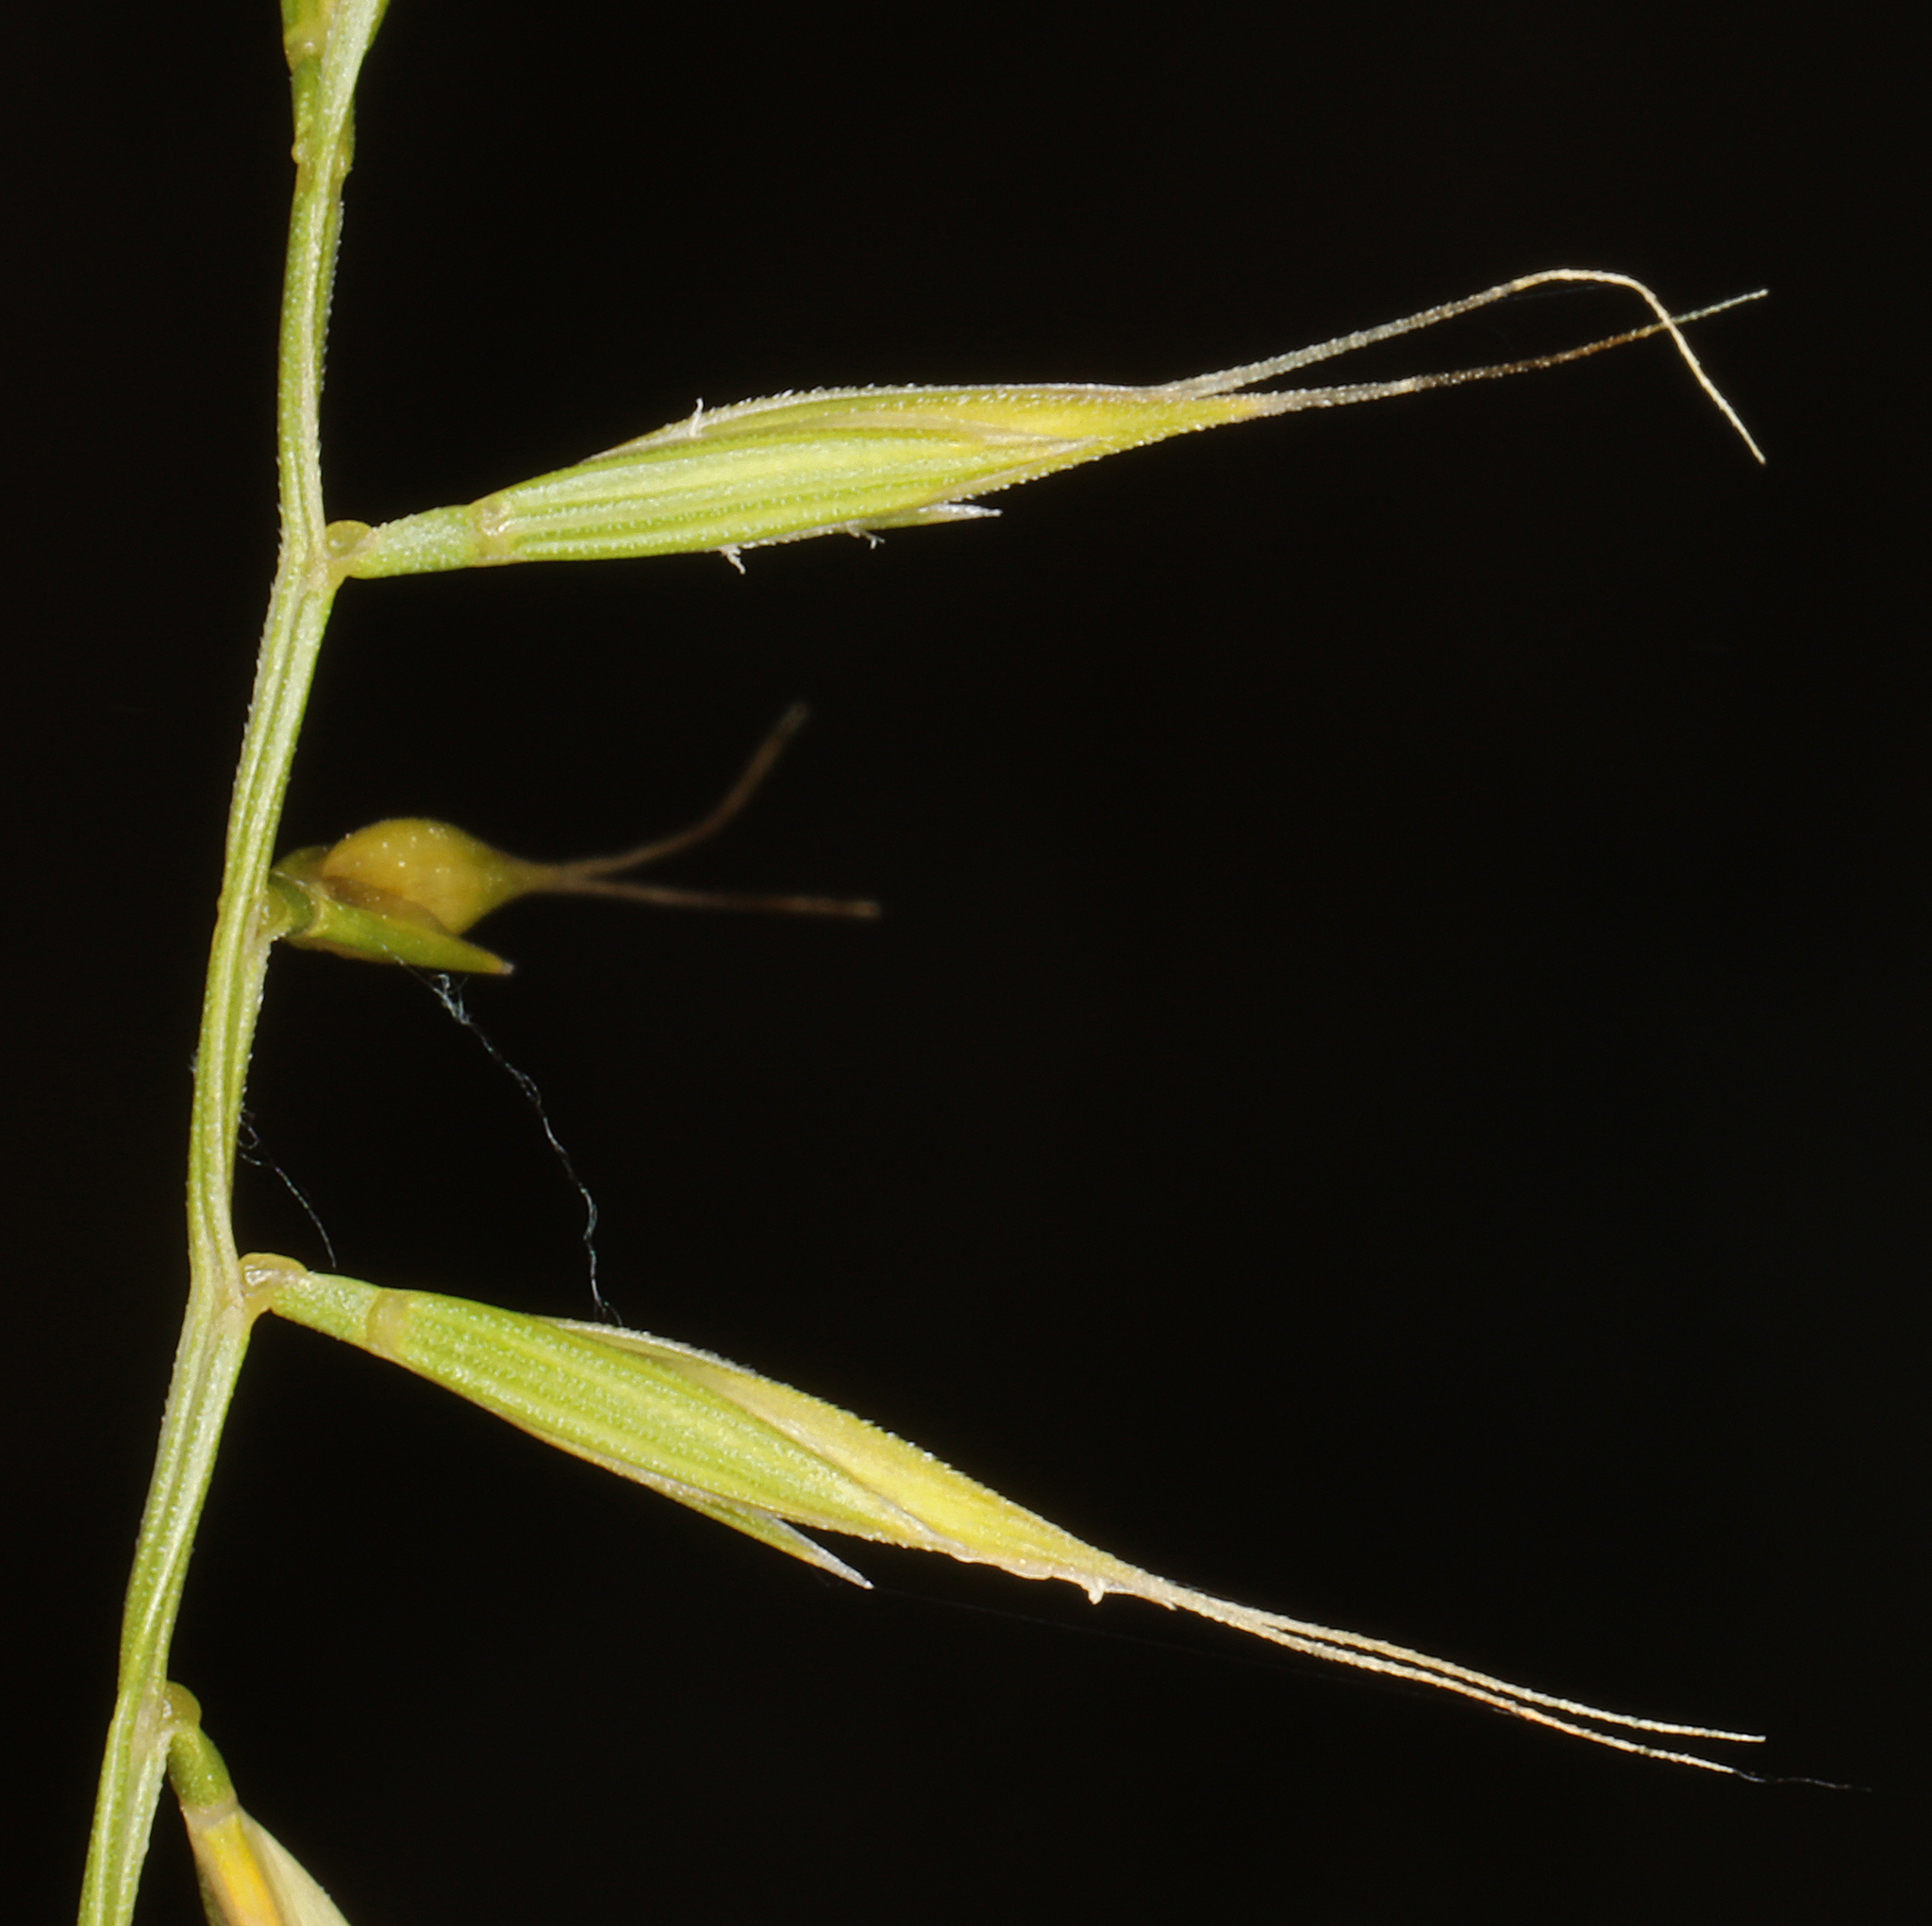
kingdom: Plantae
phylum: Tracheophyta
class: Liliopsida
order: Poales
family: Poaceae
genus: Festuca
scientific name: Festuca microstachys
